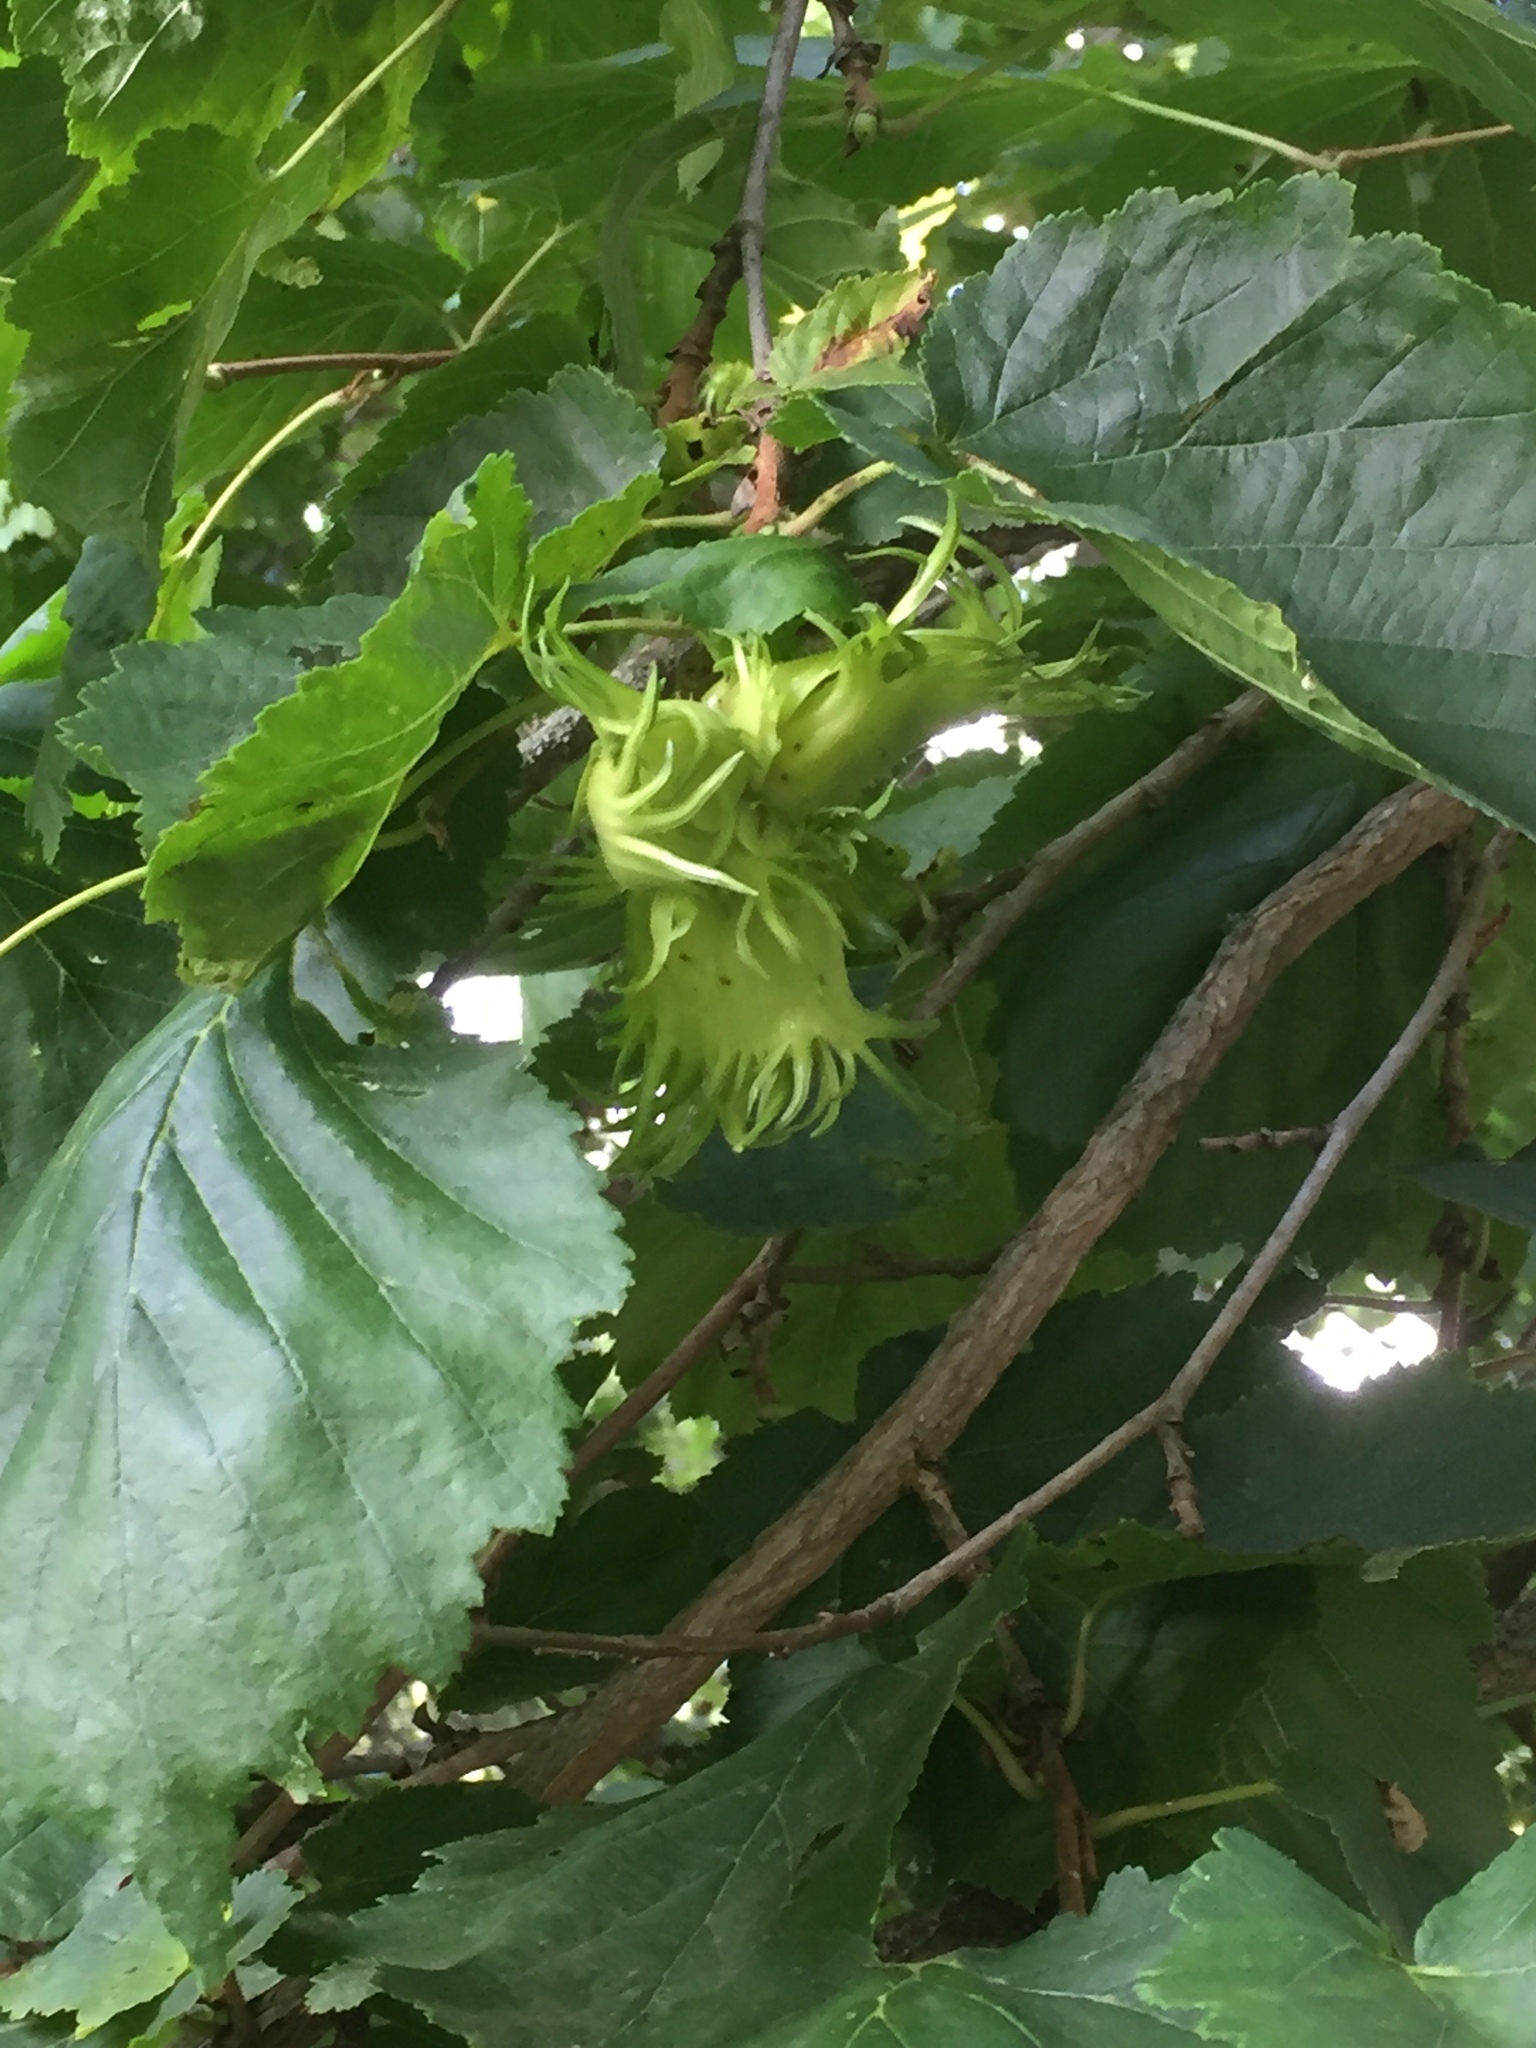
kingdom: Plantae
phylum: Tracheophyta
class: Magnoliopsida
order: Fagales
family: Betulaceae
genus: Corylus
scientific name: Corylus colurna
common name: Turkish hazel
